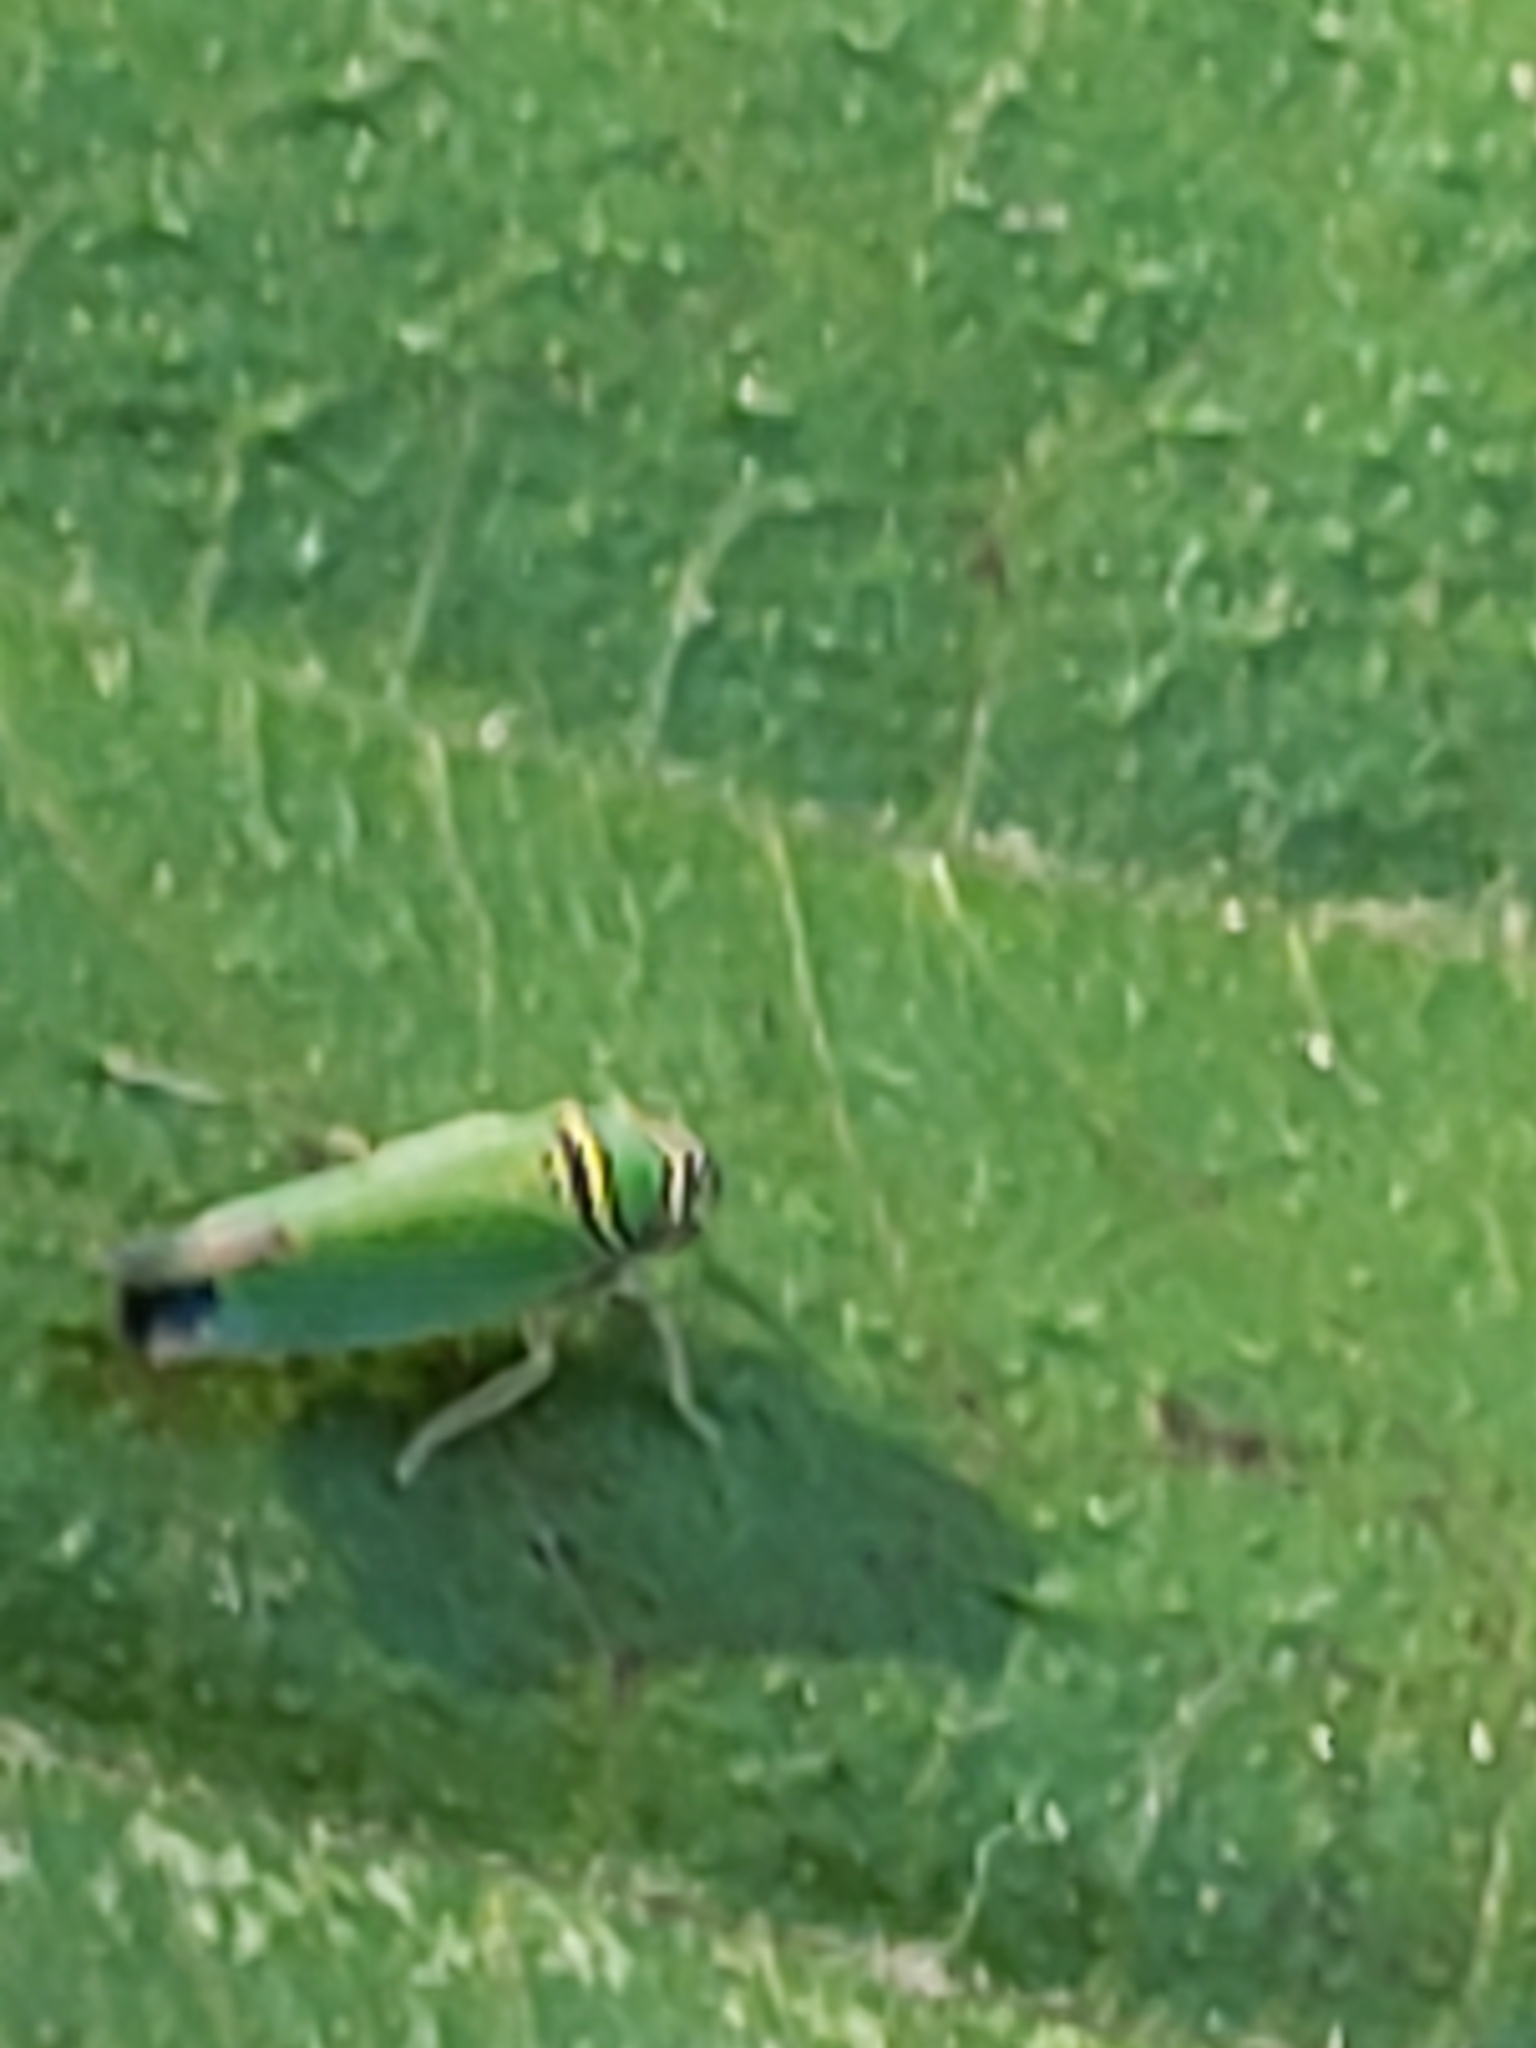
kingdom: Animalia
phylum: Arthropoda
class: Insecta
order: Hemiptera
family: Cicadellidae
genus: Tylozygus
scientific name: Tylozygus geometricus
